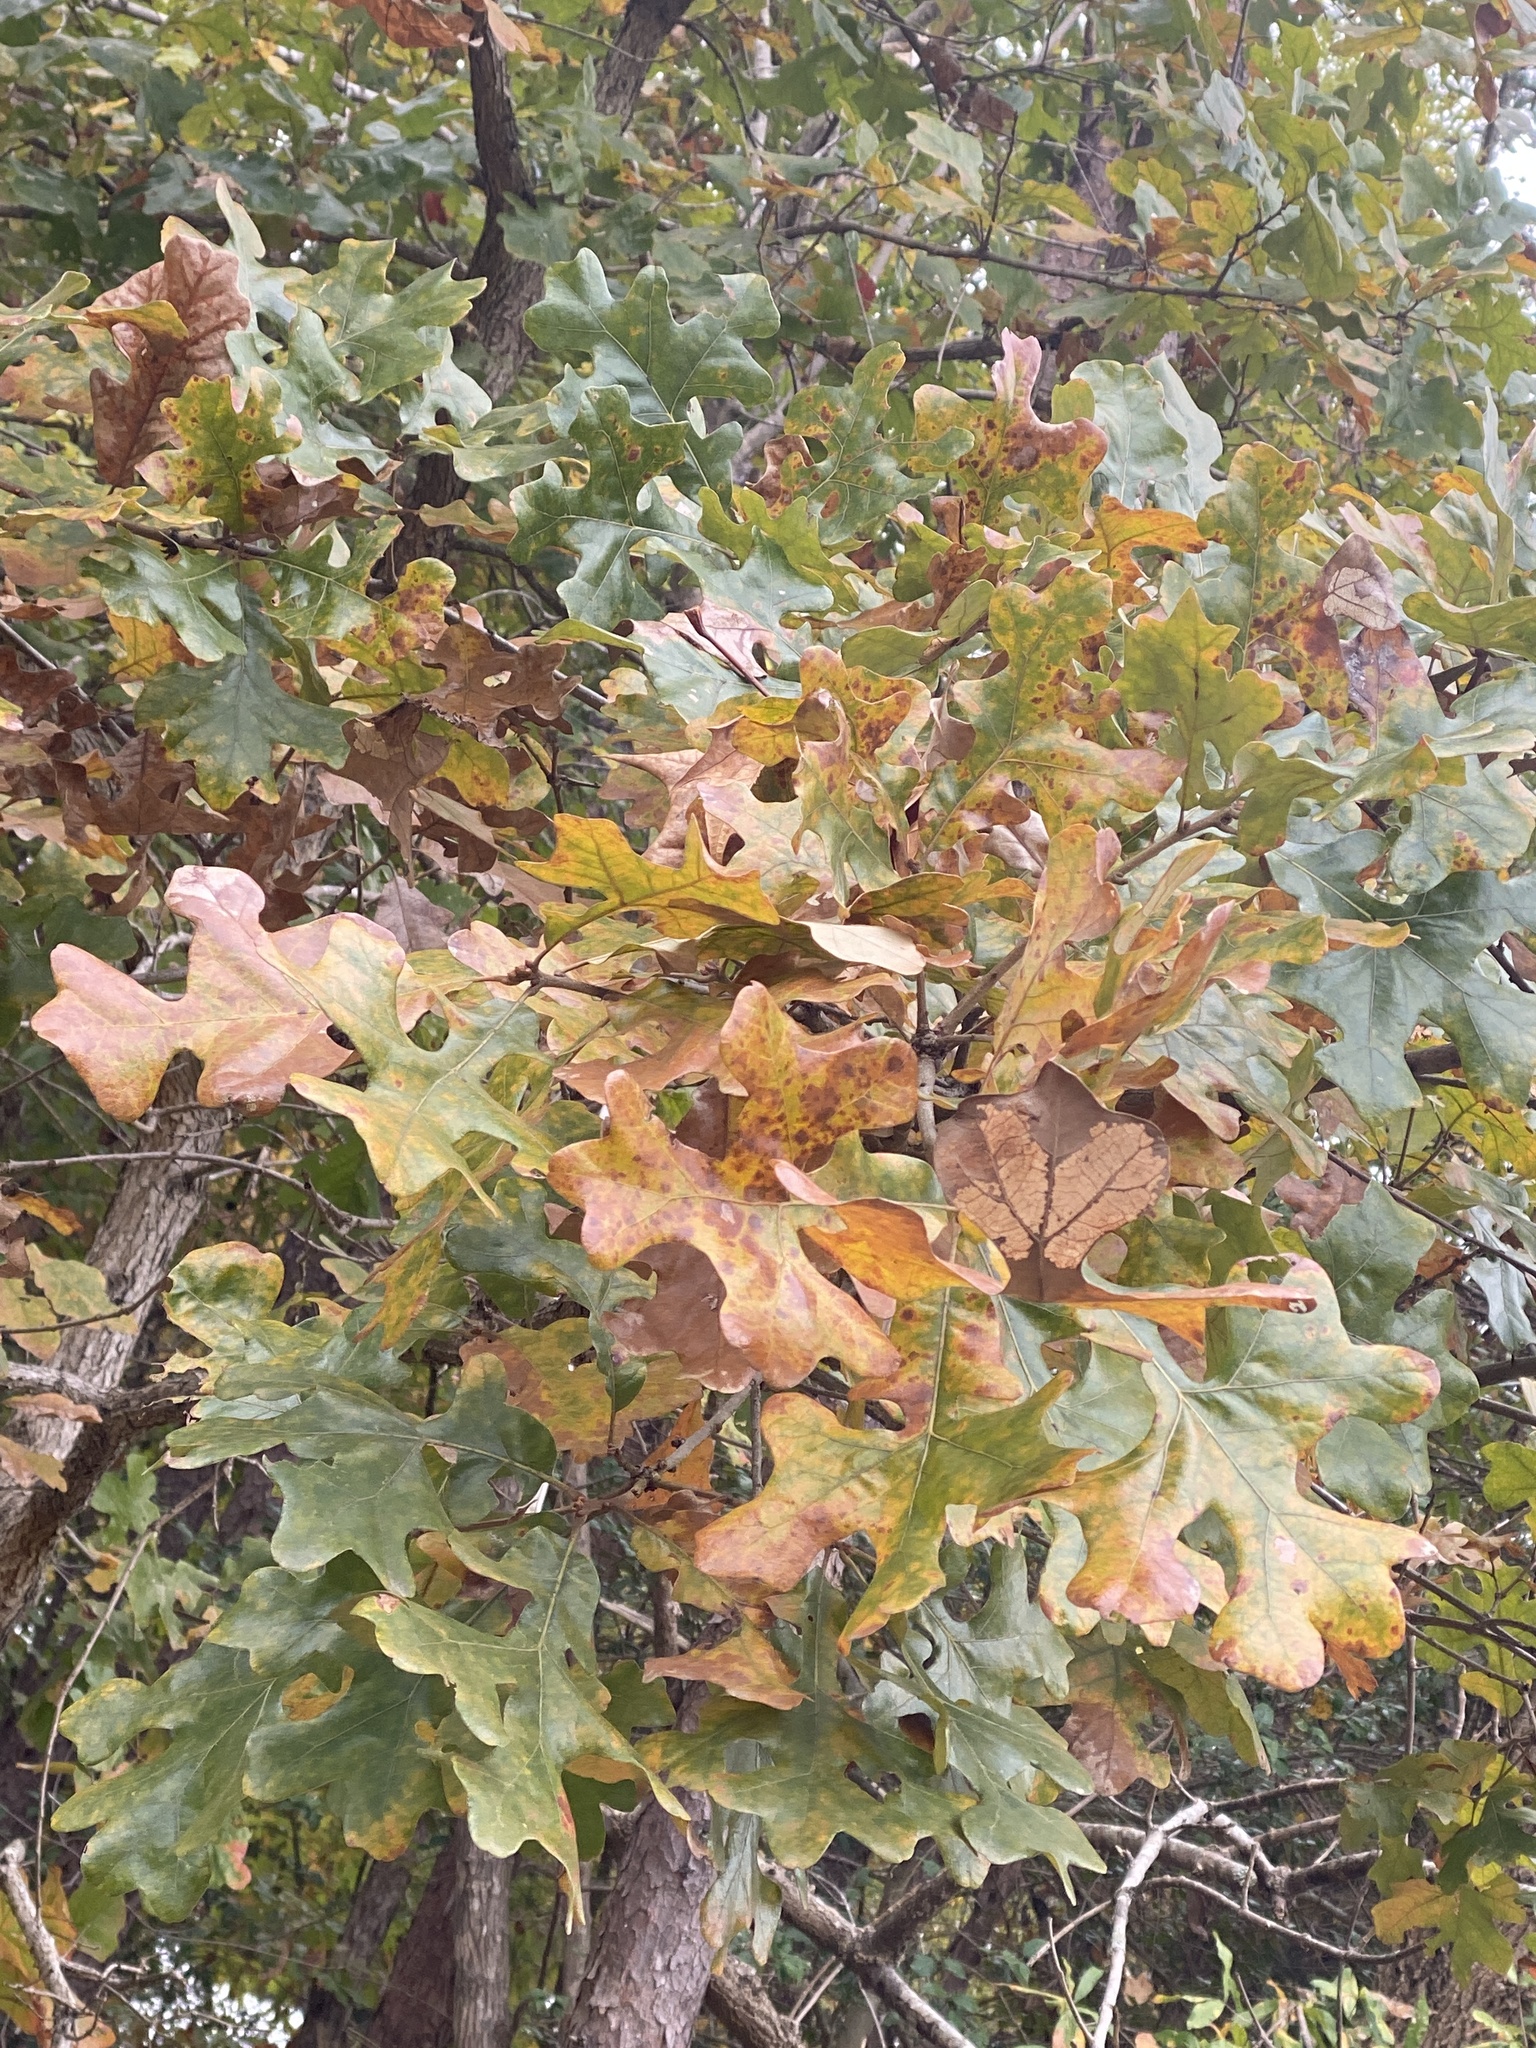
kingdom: Plantae
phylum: Tracheophyta
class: Magnoliopsida
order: Fagales
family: Fagaceae
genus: Quercus
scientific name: Quercus stellata
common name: Post oak
